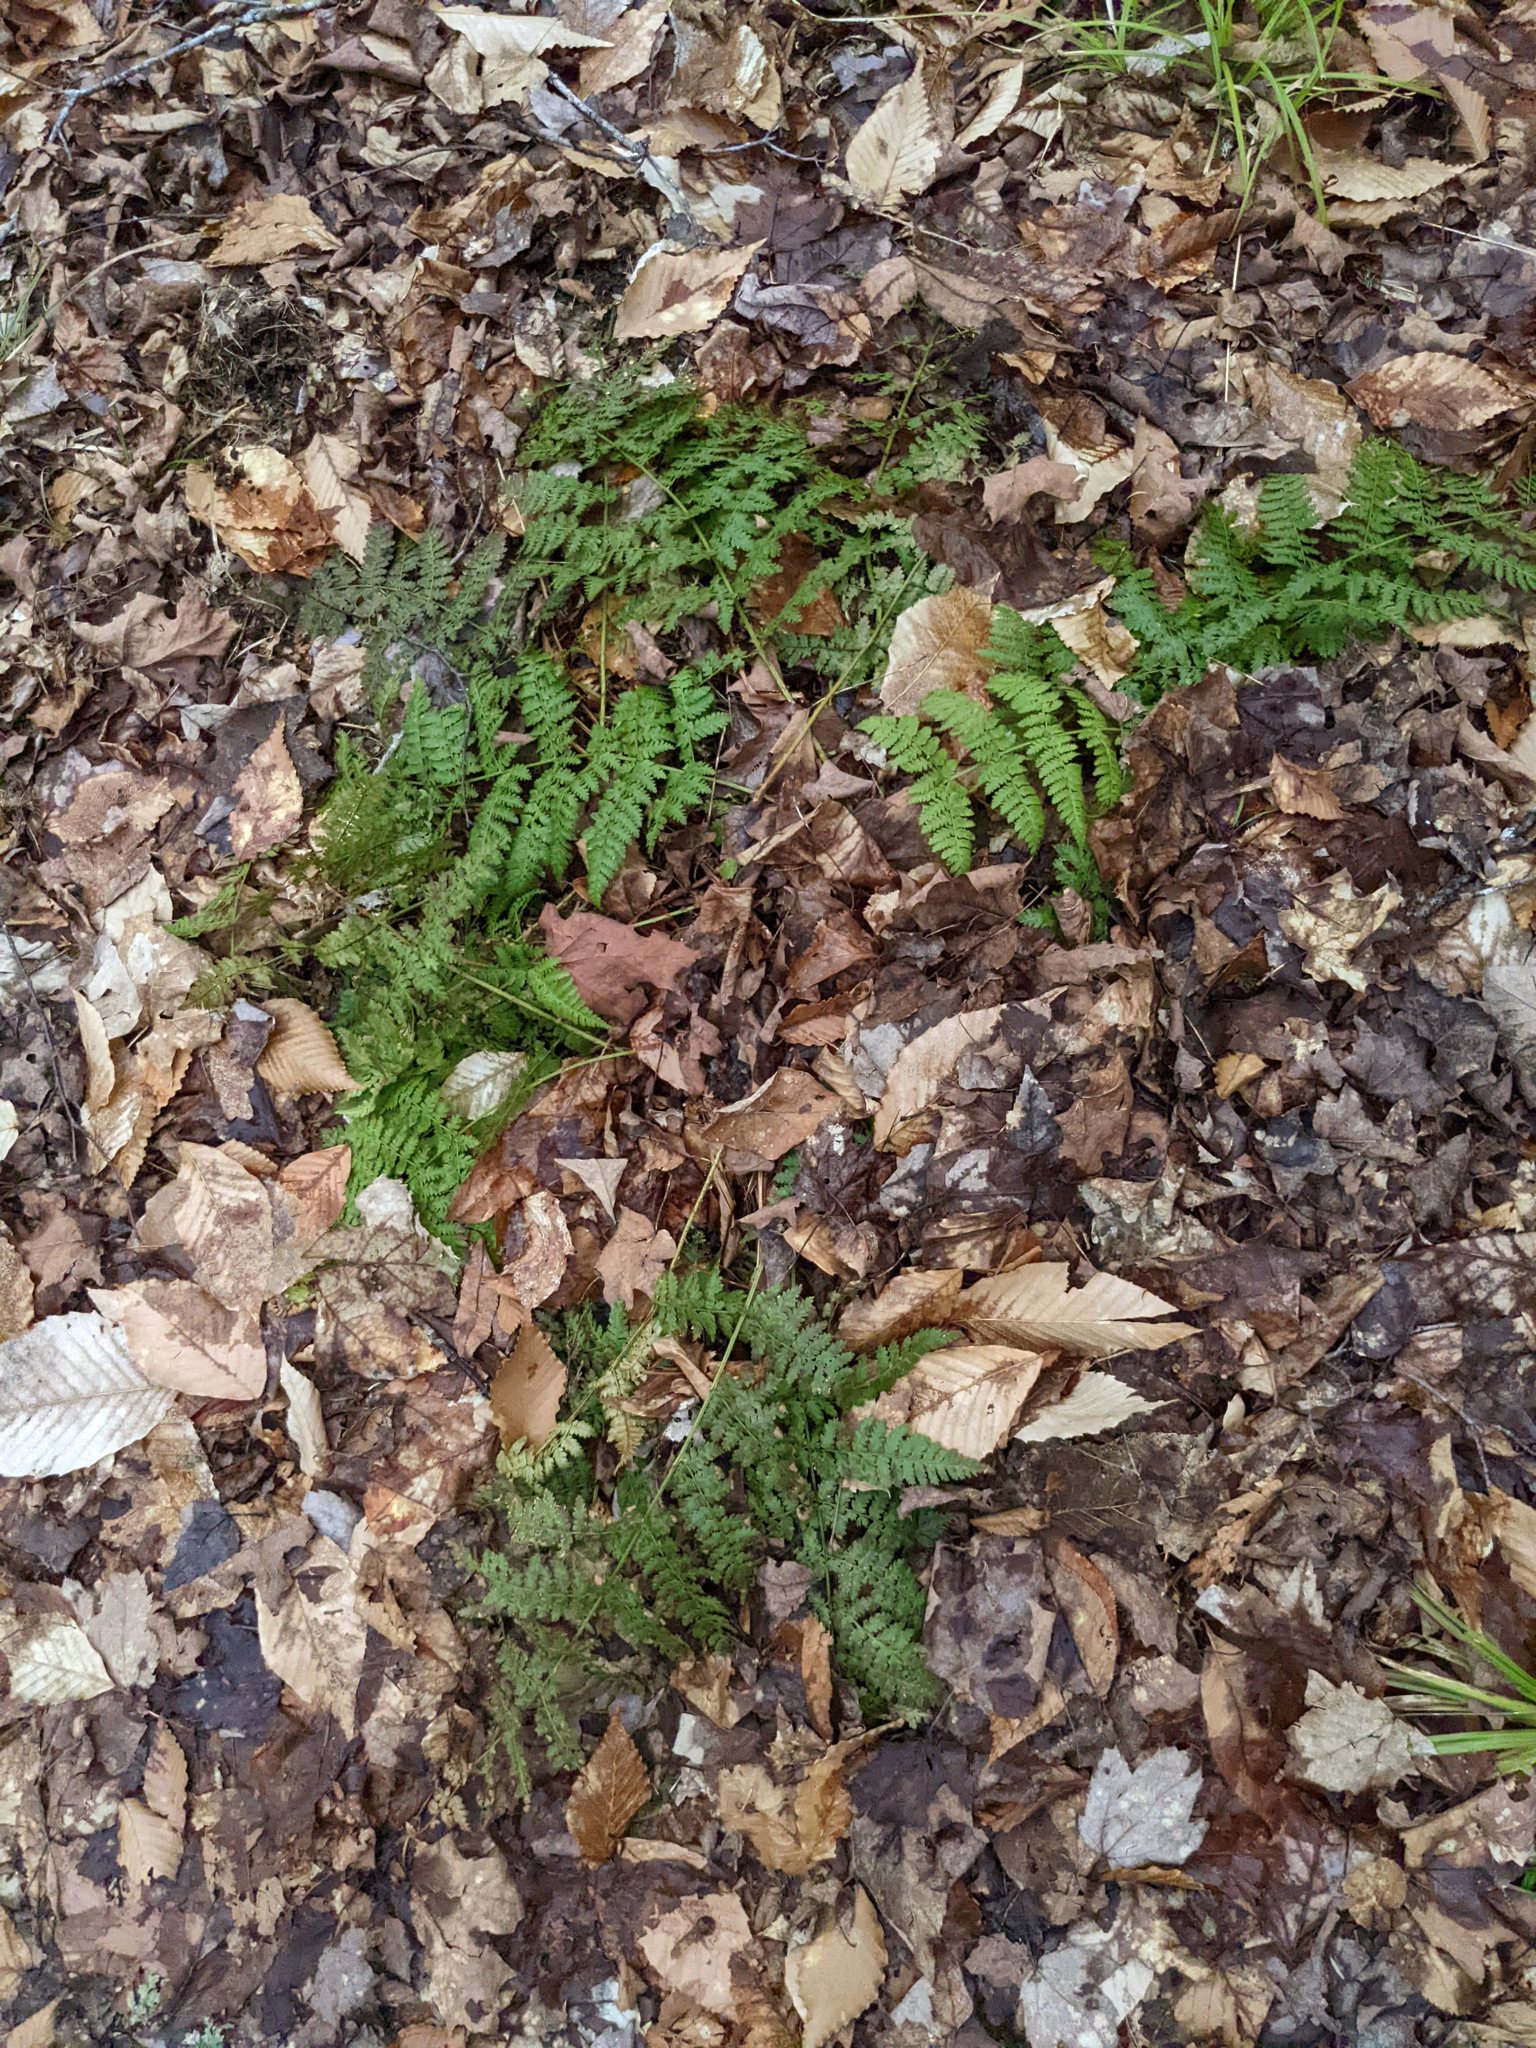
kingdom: Plantae
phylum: Tracheophyta
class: Polypodiopsida
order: Polypodiales
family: Dryopteridaceae
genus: Dryopteris
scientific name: Dryopteris intermedia
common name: Evergreen wood fern
